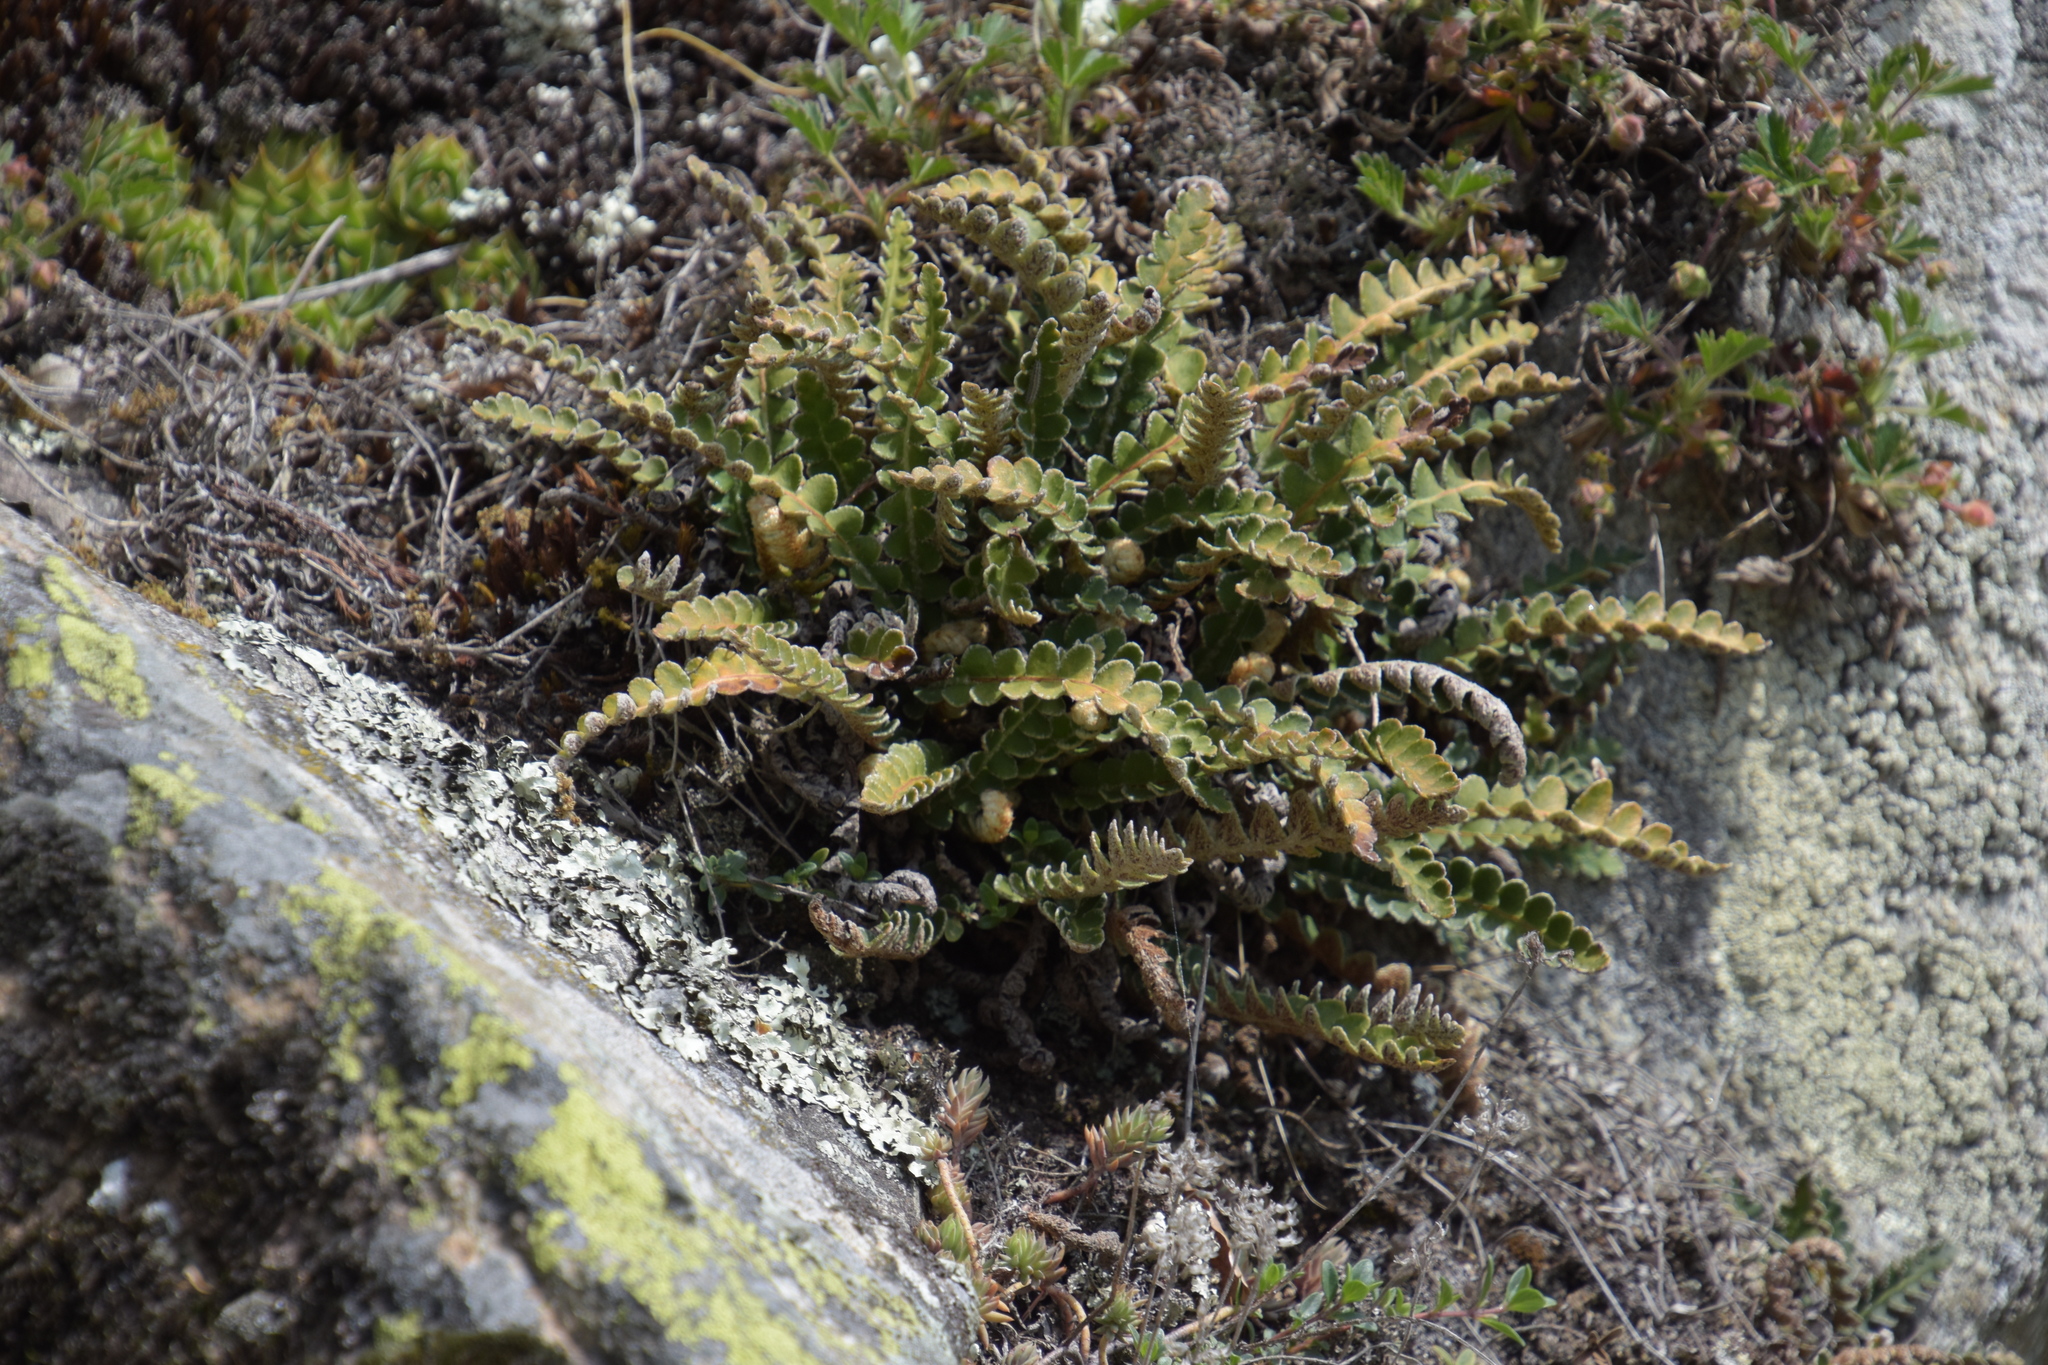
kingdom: Plantae
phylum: Tracheophyta
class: Polypodiopsida
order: Polypodiales
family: Aspleniaceae
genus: Asplenium
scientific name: Asplenium ceterach
